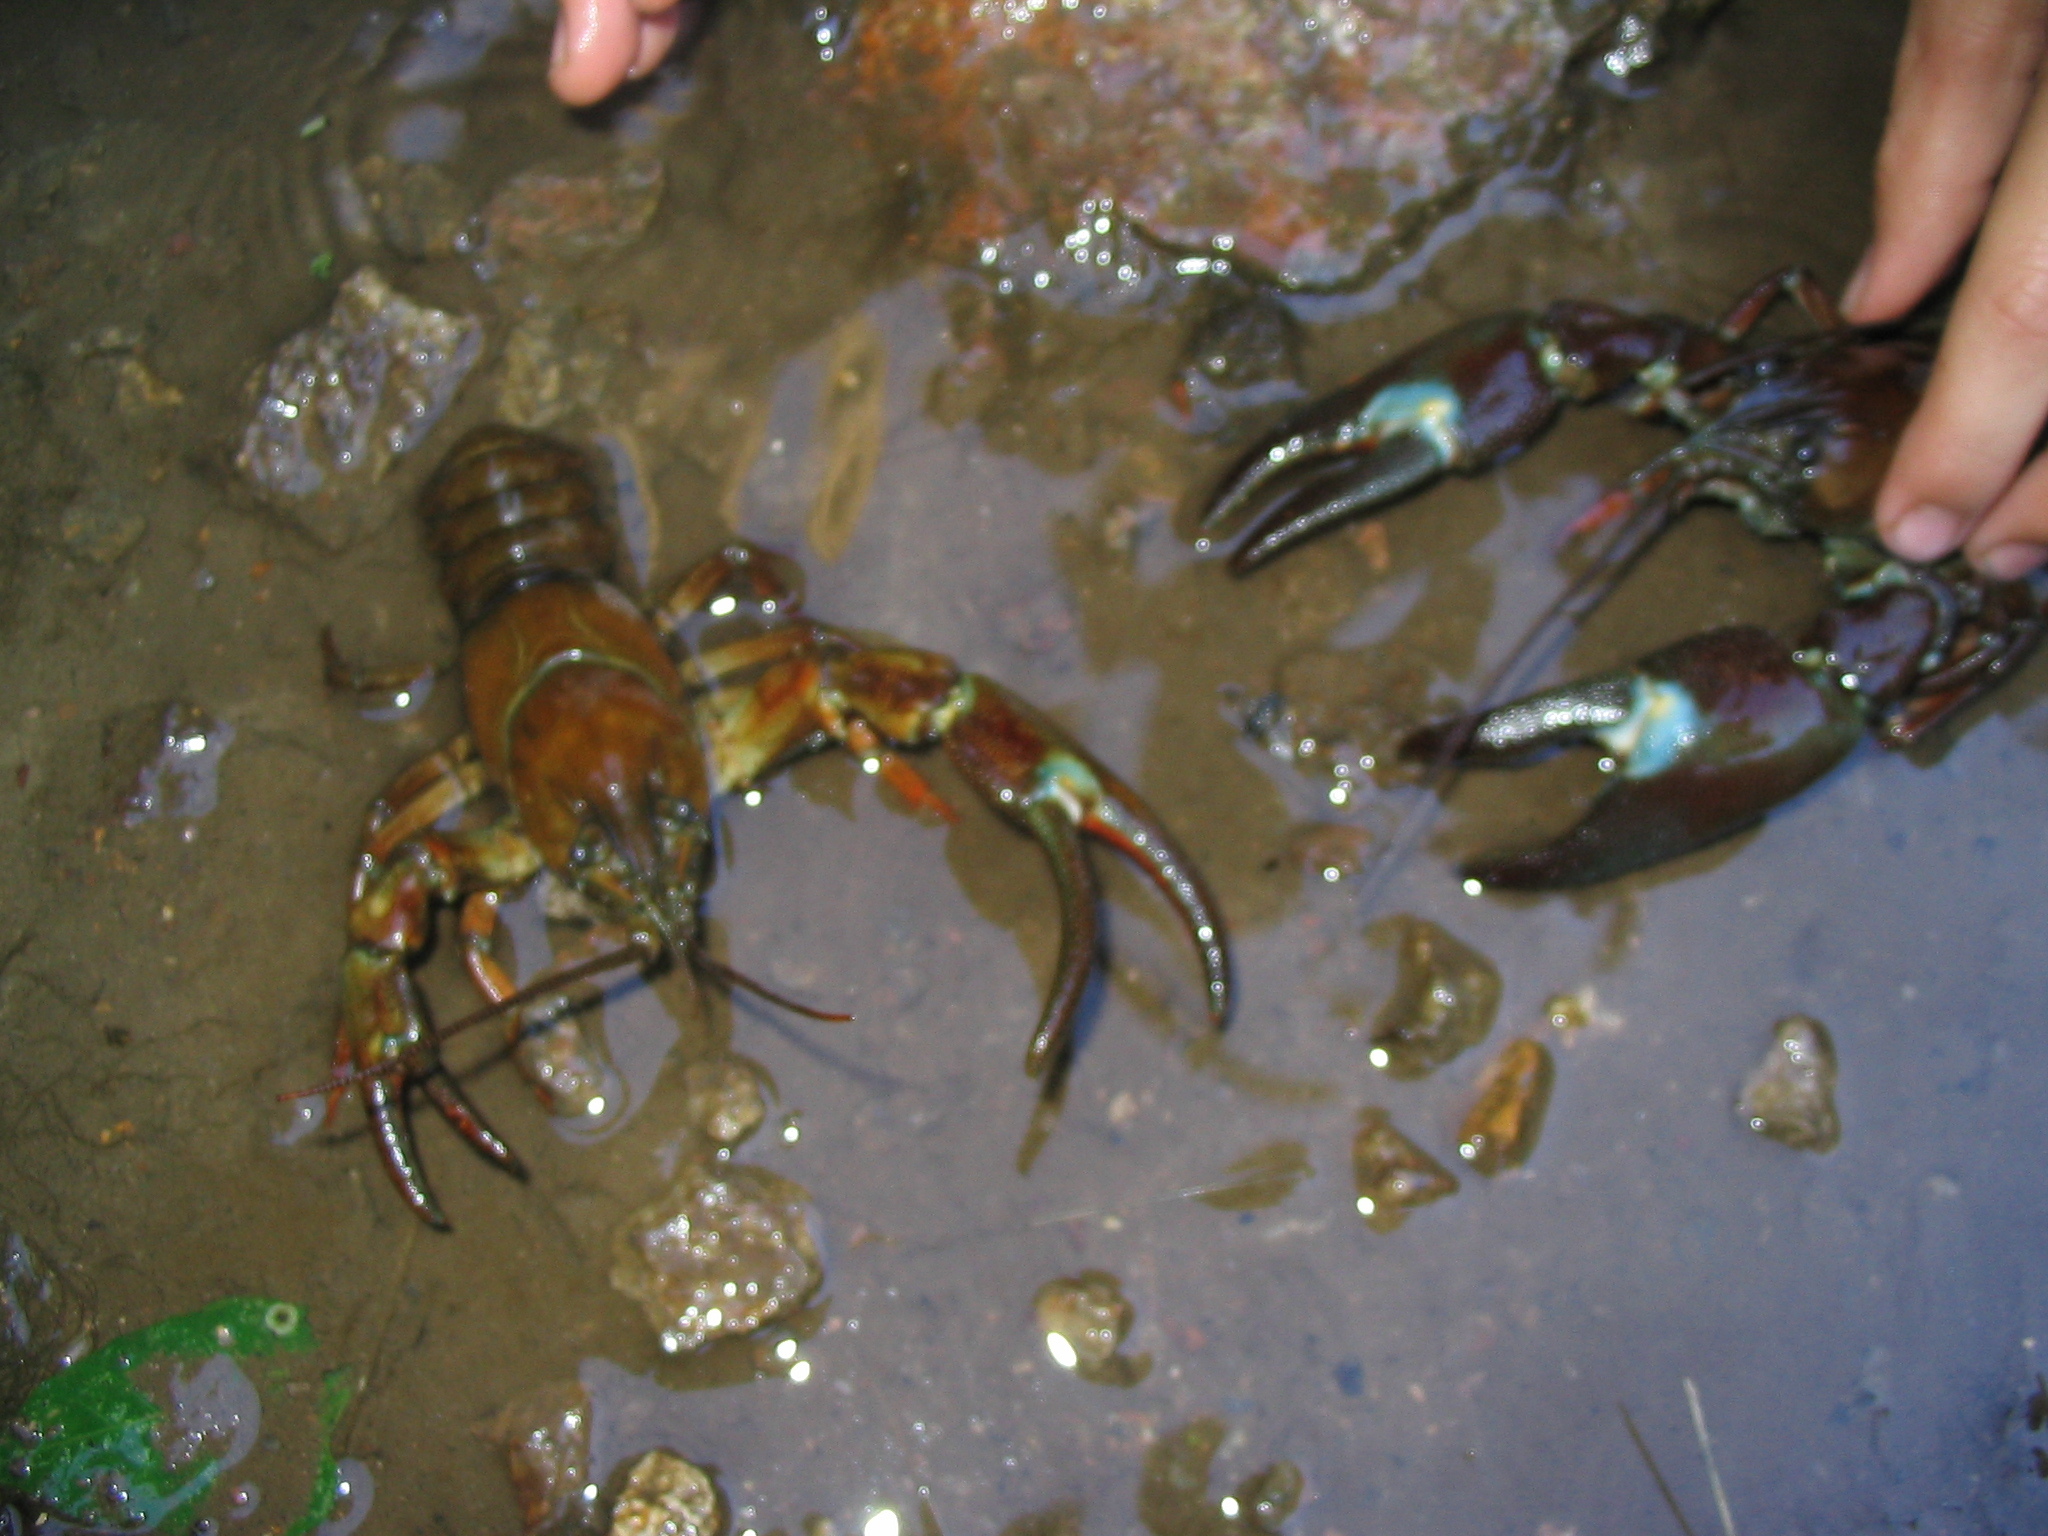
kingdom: Animalia
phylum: Arthropoda
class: Malacostraca
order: Decapoda
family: Astacidae
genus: Pacifastacus
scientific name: Pacifastacus leniusculus
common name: Signal crayfish
